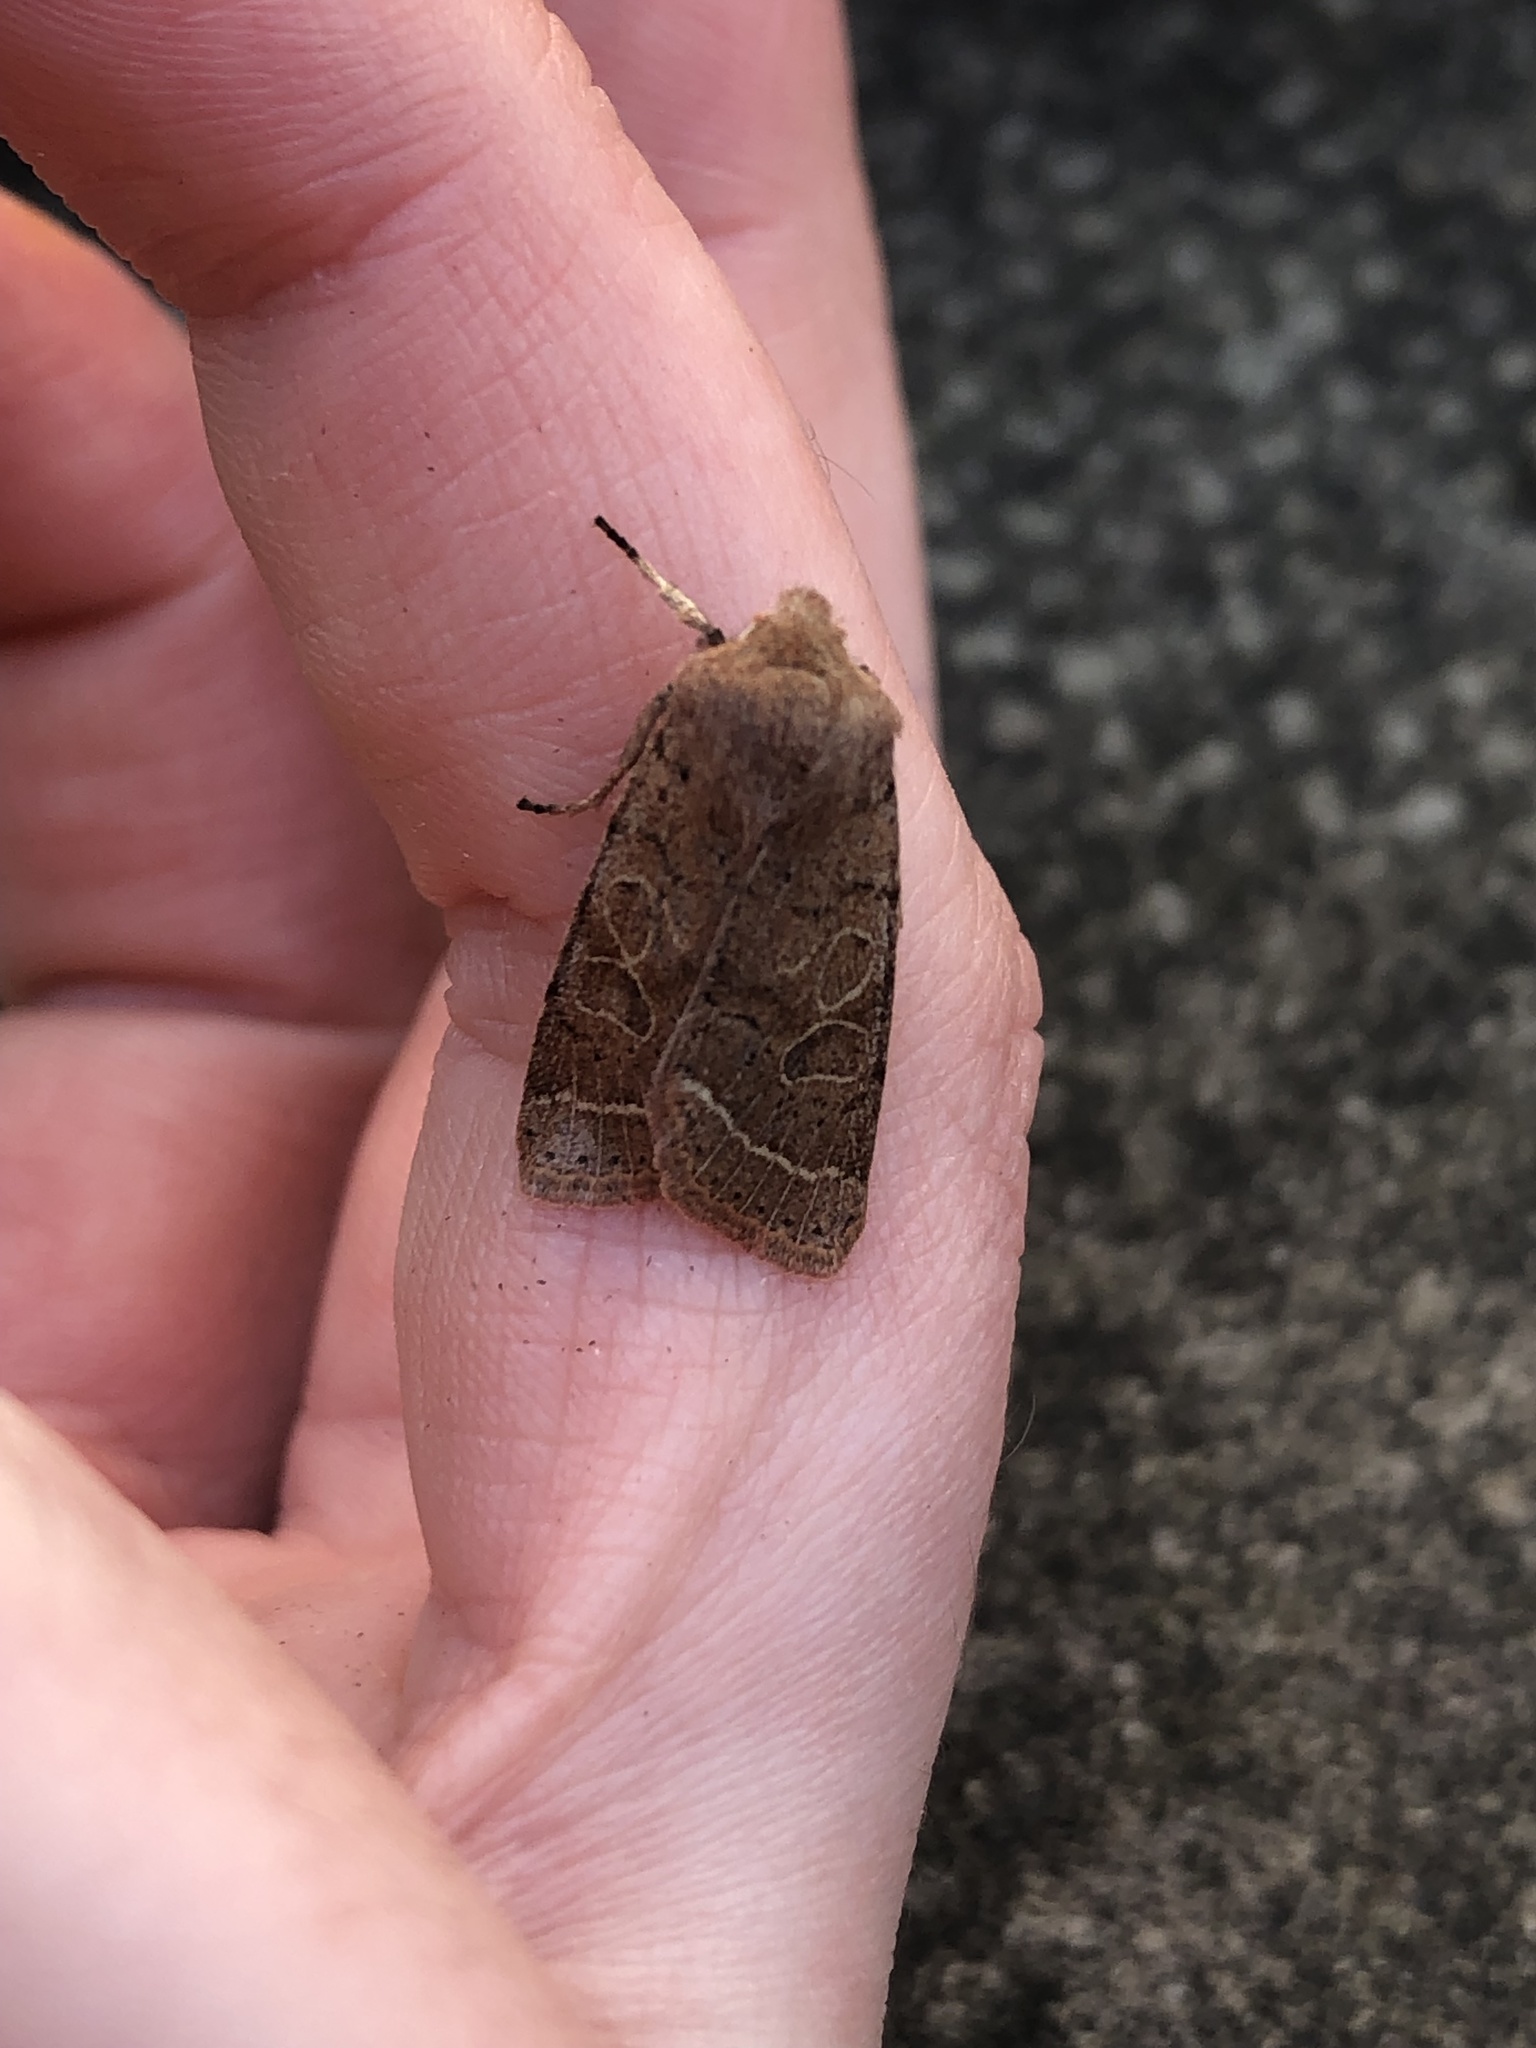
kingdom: Animalia
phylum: Arthropoda
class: Insecta
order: Lepidoptera
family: Noctuidae
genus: Orthosia
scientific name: Orthosia cerasi
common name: Common quaker
